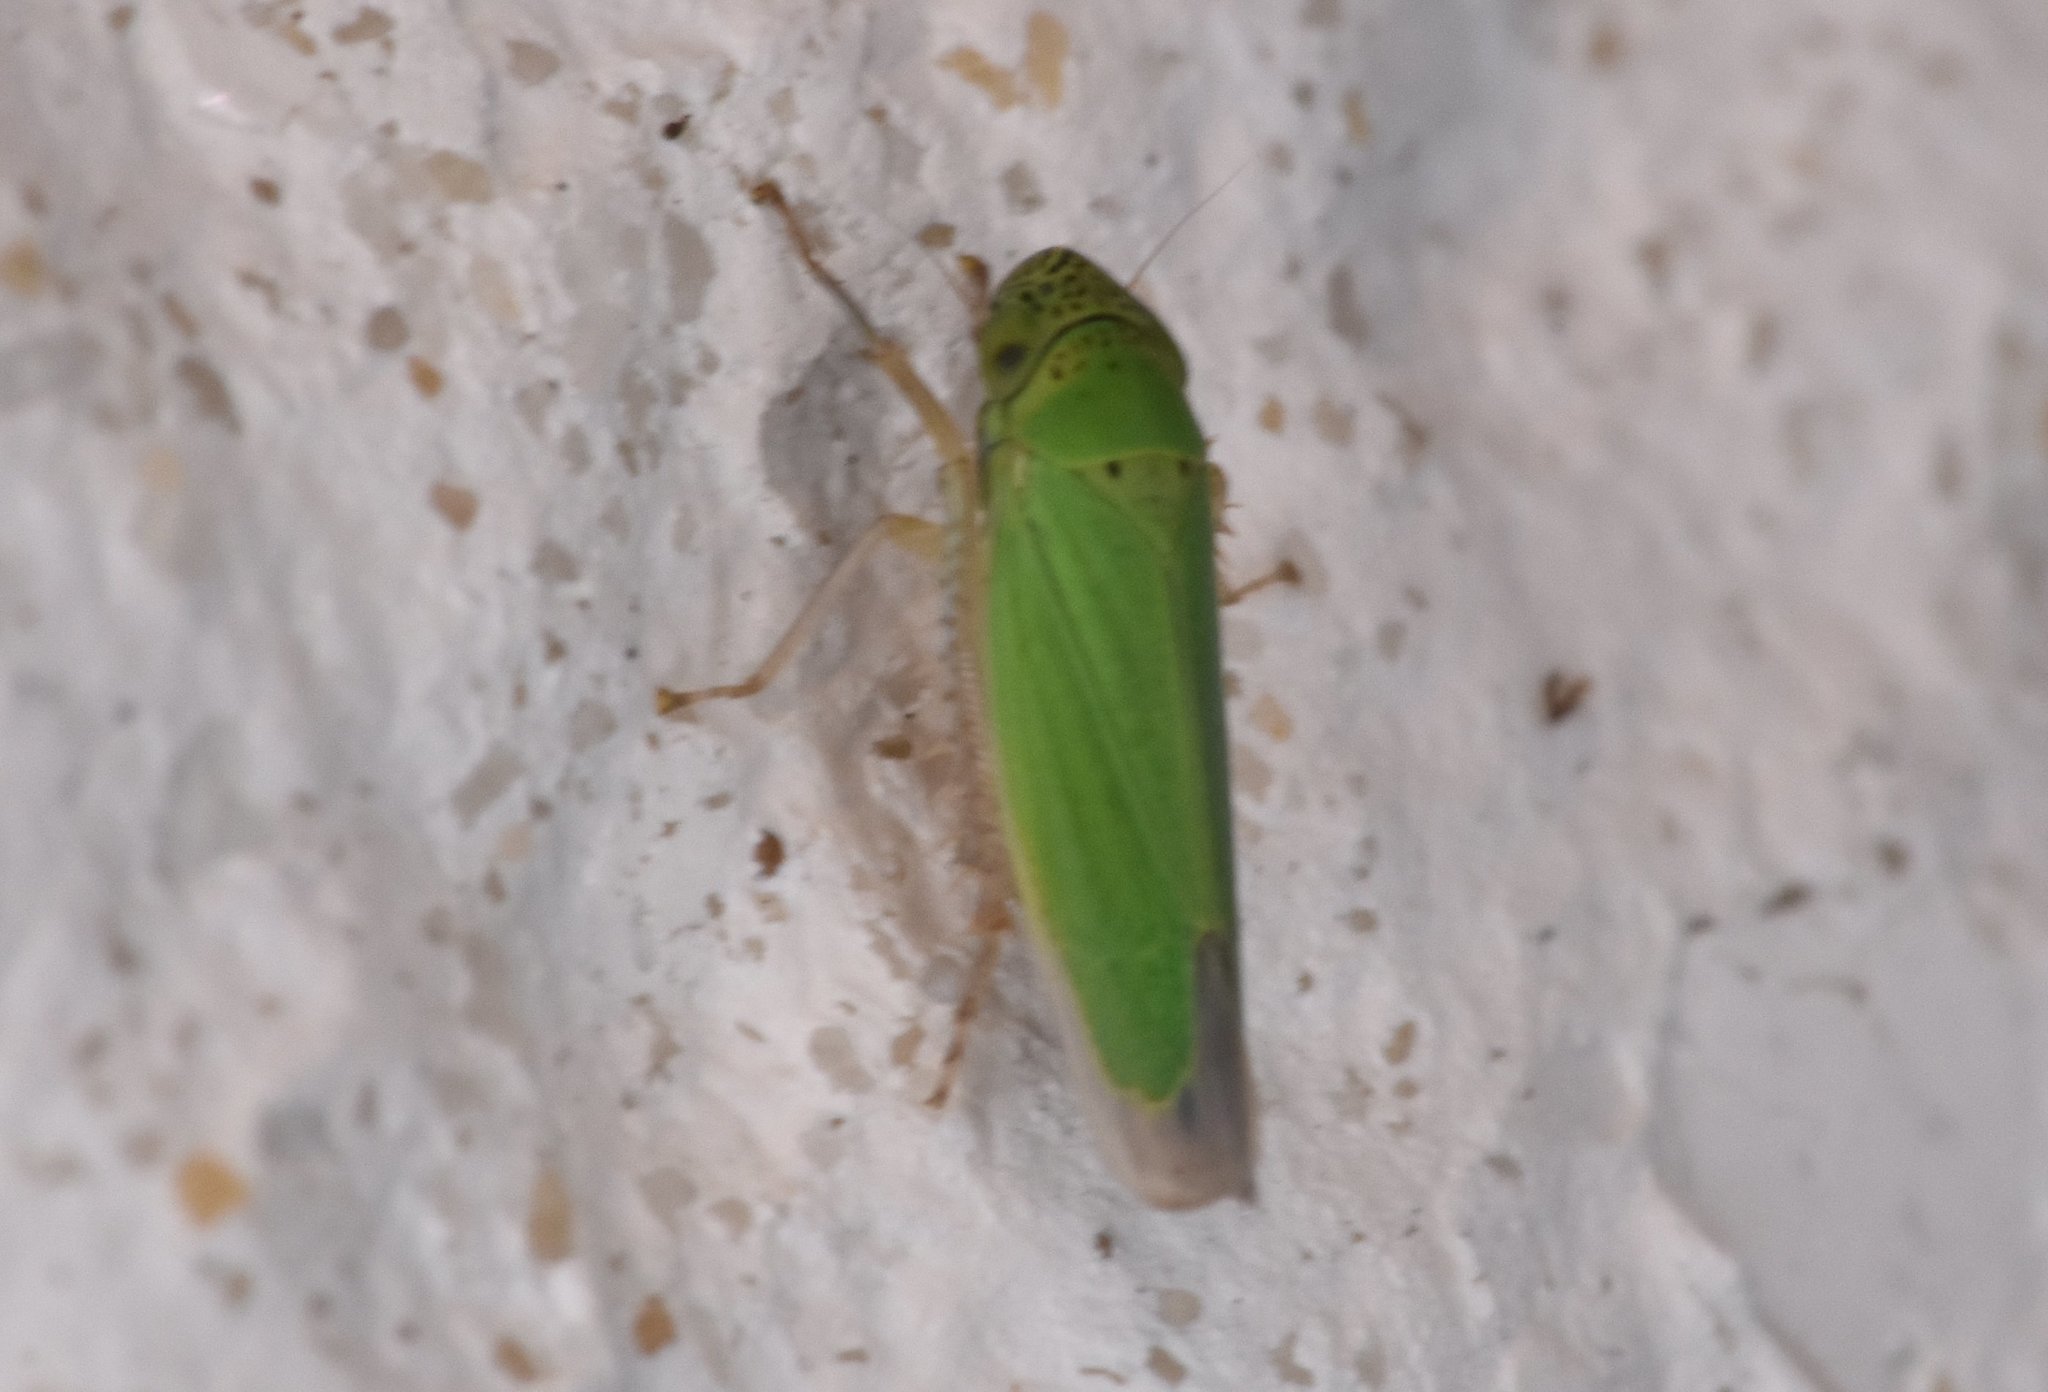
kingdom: Animalia
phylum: Arthropoda
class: Insecta
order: Hemiptera
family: Cicadellidae
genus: Hortensia
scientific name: Hortensia similis
